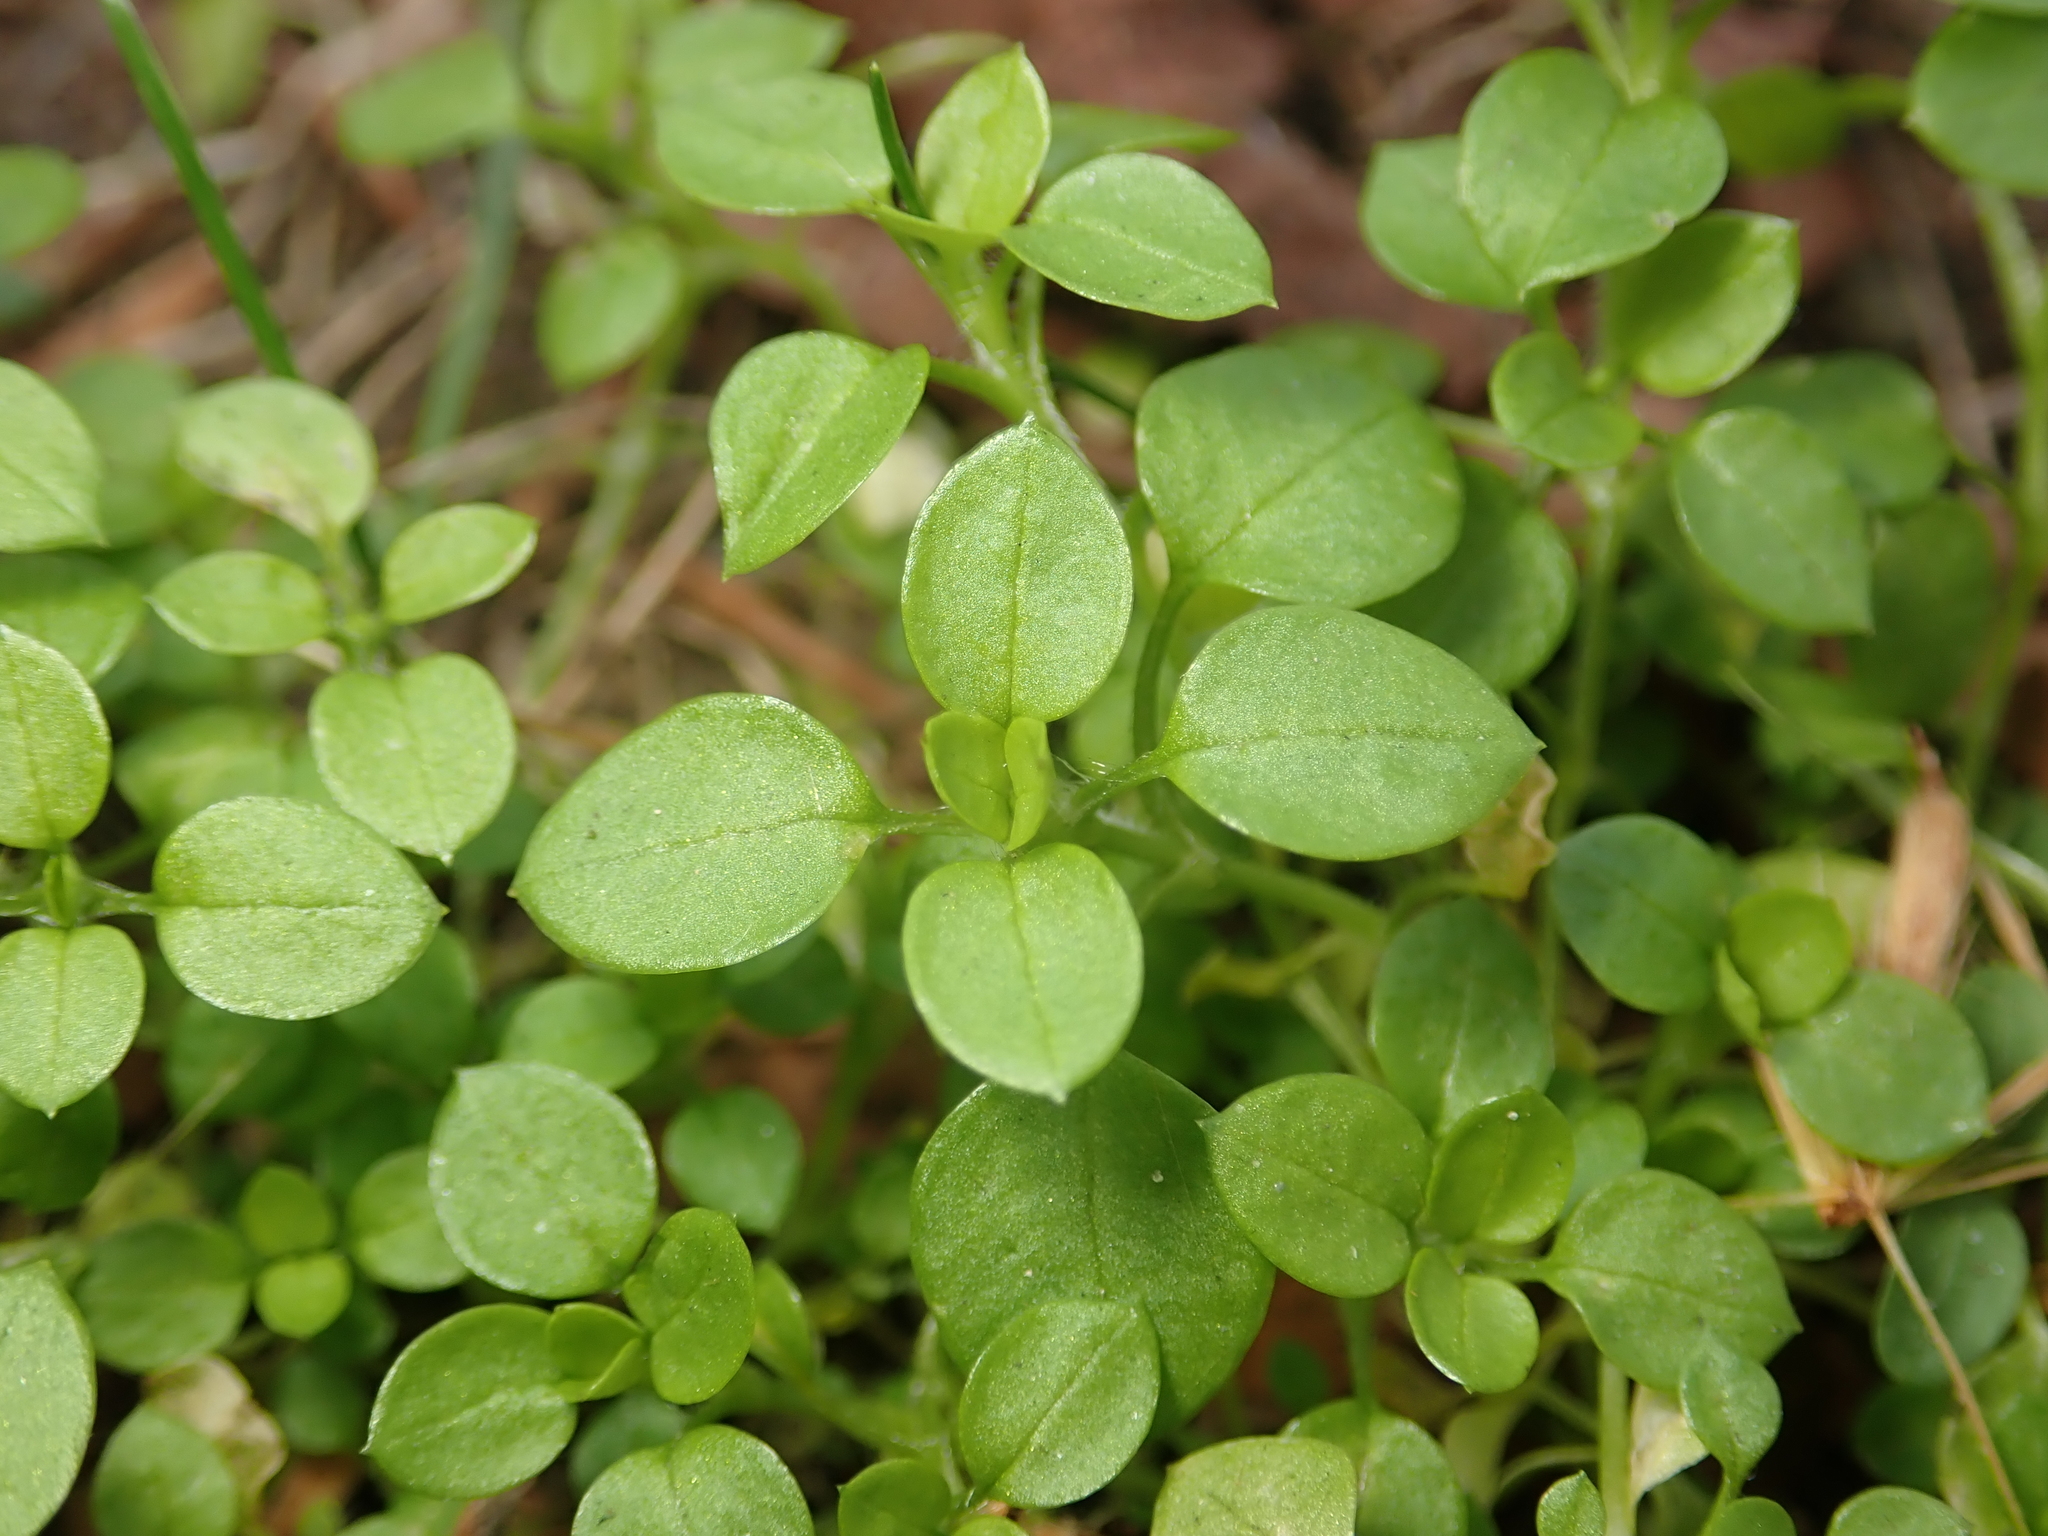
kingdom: Plantae
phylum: Tracheophyta
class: Magnoliopsida
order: Caryophyllales
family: Caryophyllaceae
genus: Stellaria
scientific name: Stellaria media
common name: Common chickweed
